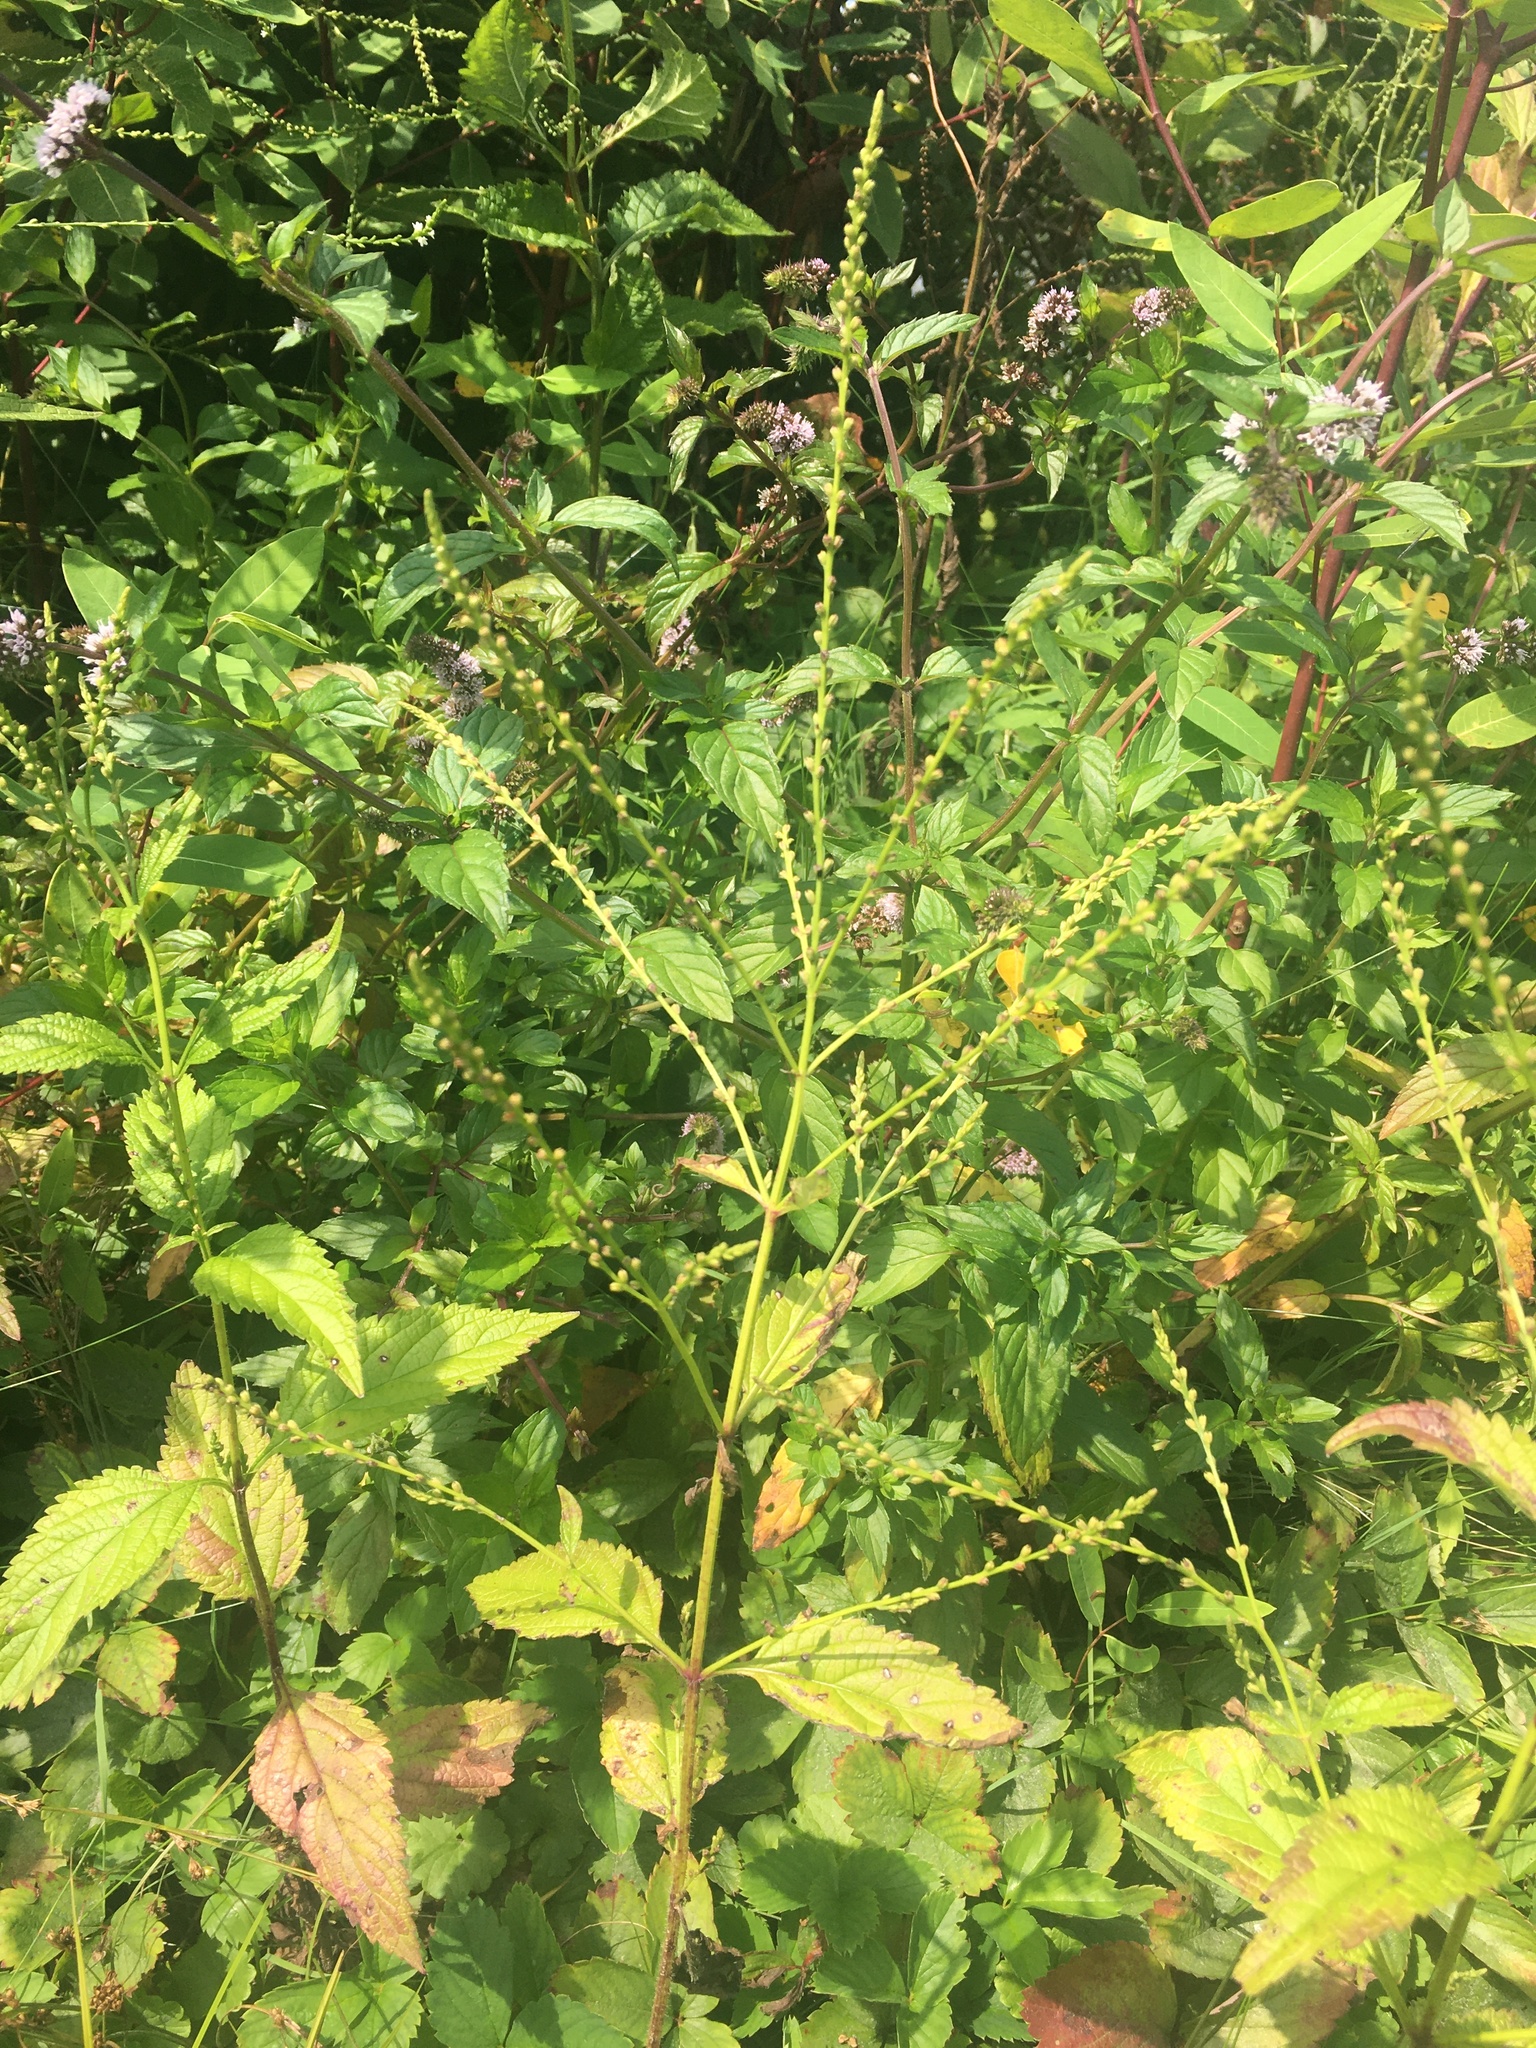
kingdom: Plantae
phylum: Tracheophyta
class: Magnoliopsida
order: Lamiales
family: Verbenaceae
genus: Verbena
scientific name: Verbena urticifolia
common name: Nettle-leaved vervain
